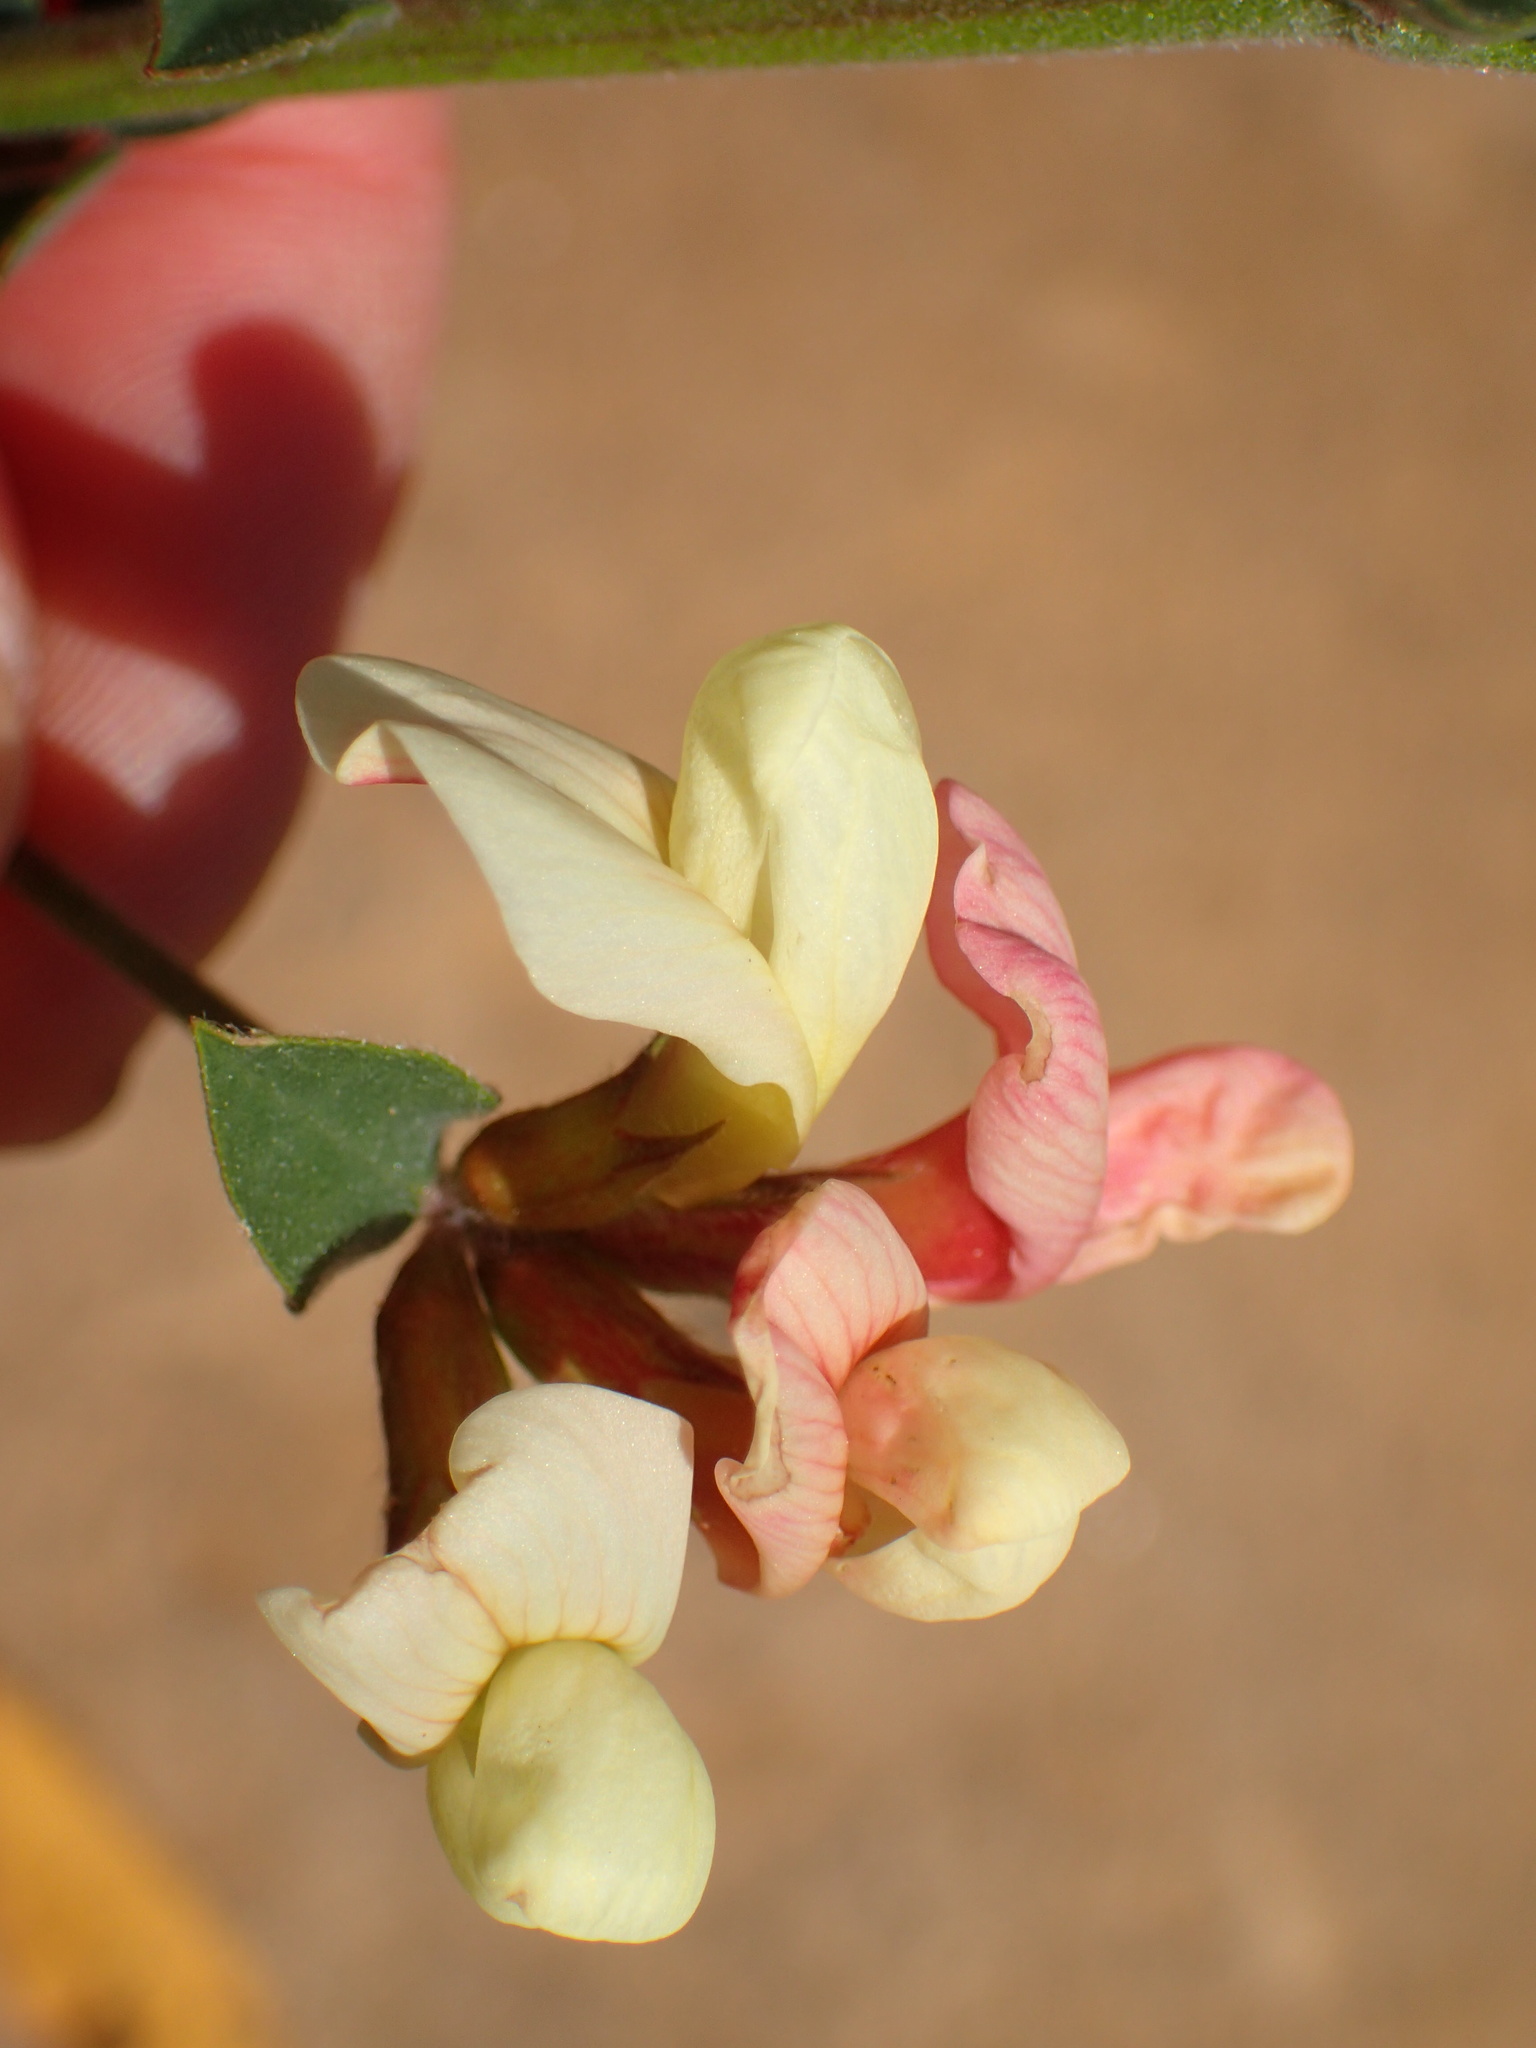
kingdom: Plantae
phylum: Tracheophyta
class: Magnoliopsida
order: Fabales
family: Fabaceae
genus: Acmispon
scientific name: Acmispon grandiflorus
